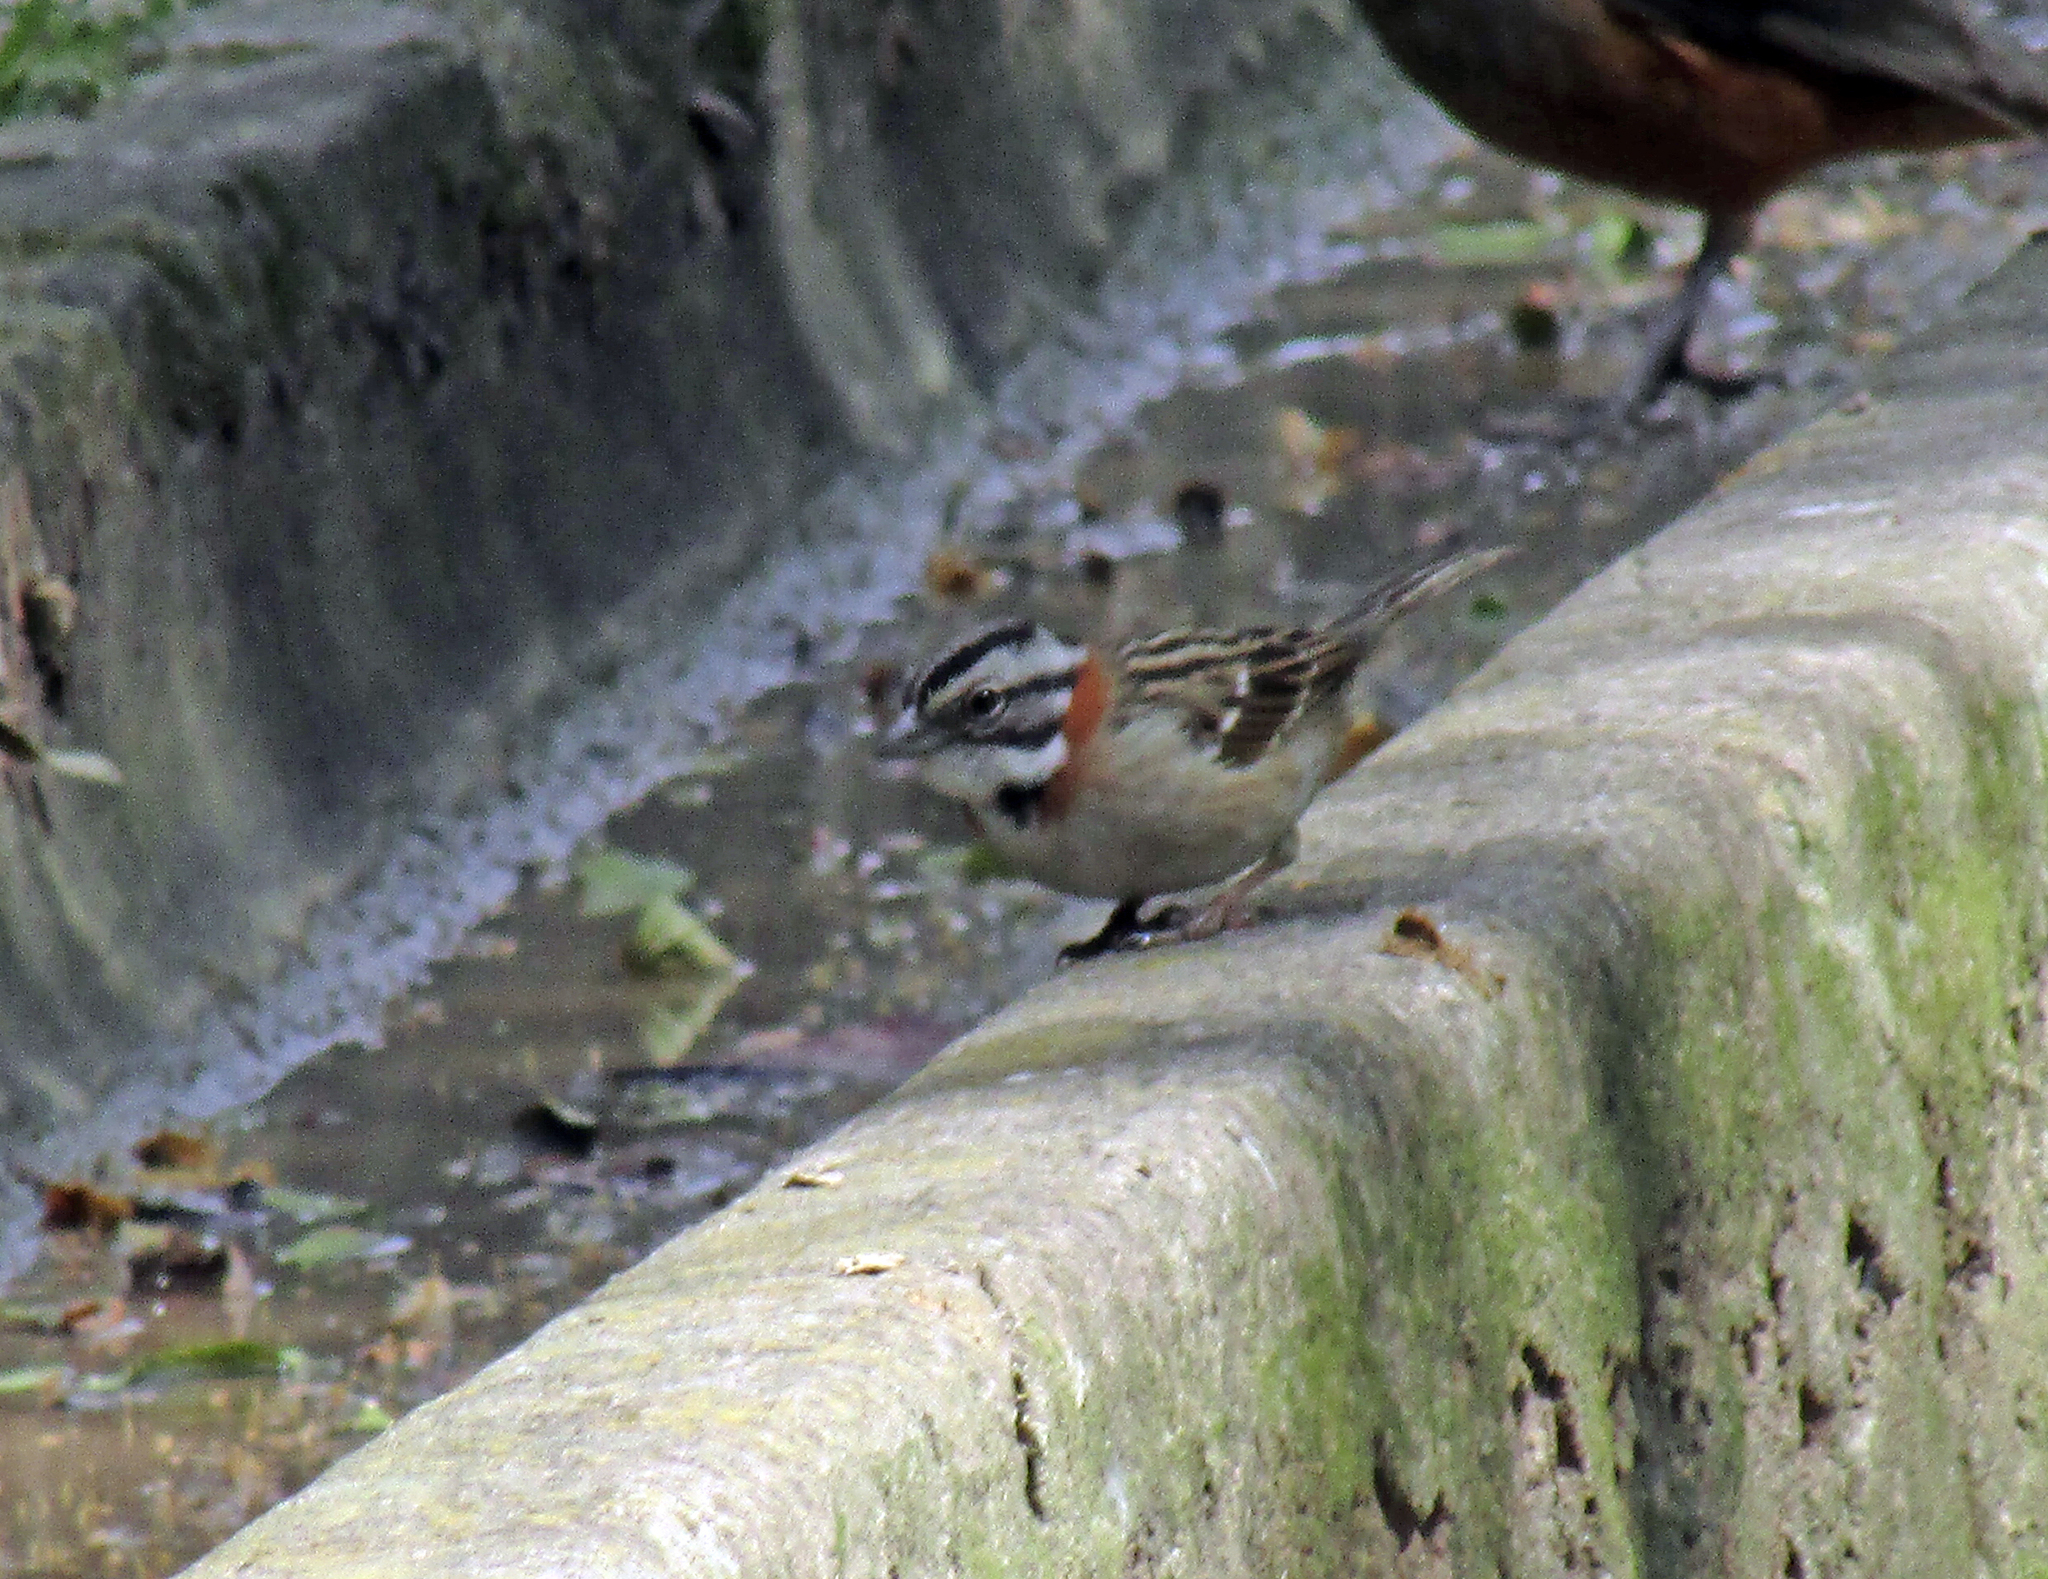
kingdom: Animalia
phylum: Chordata
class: Aves
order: Passeriformes
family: Passerellidae
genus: Zonotrichia
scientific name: Zonotrichia capensis
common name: Rufous-collared sparrow
